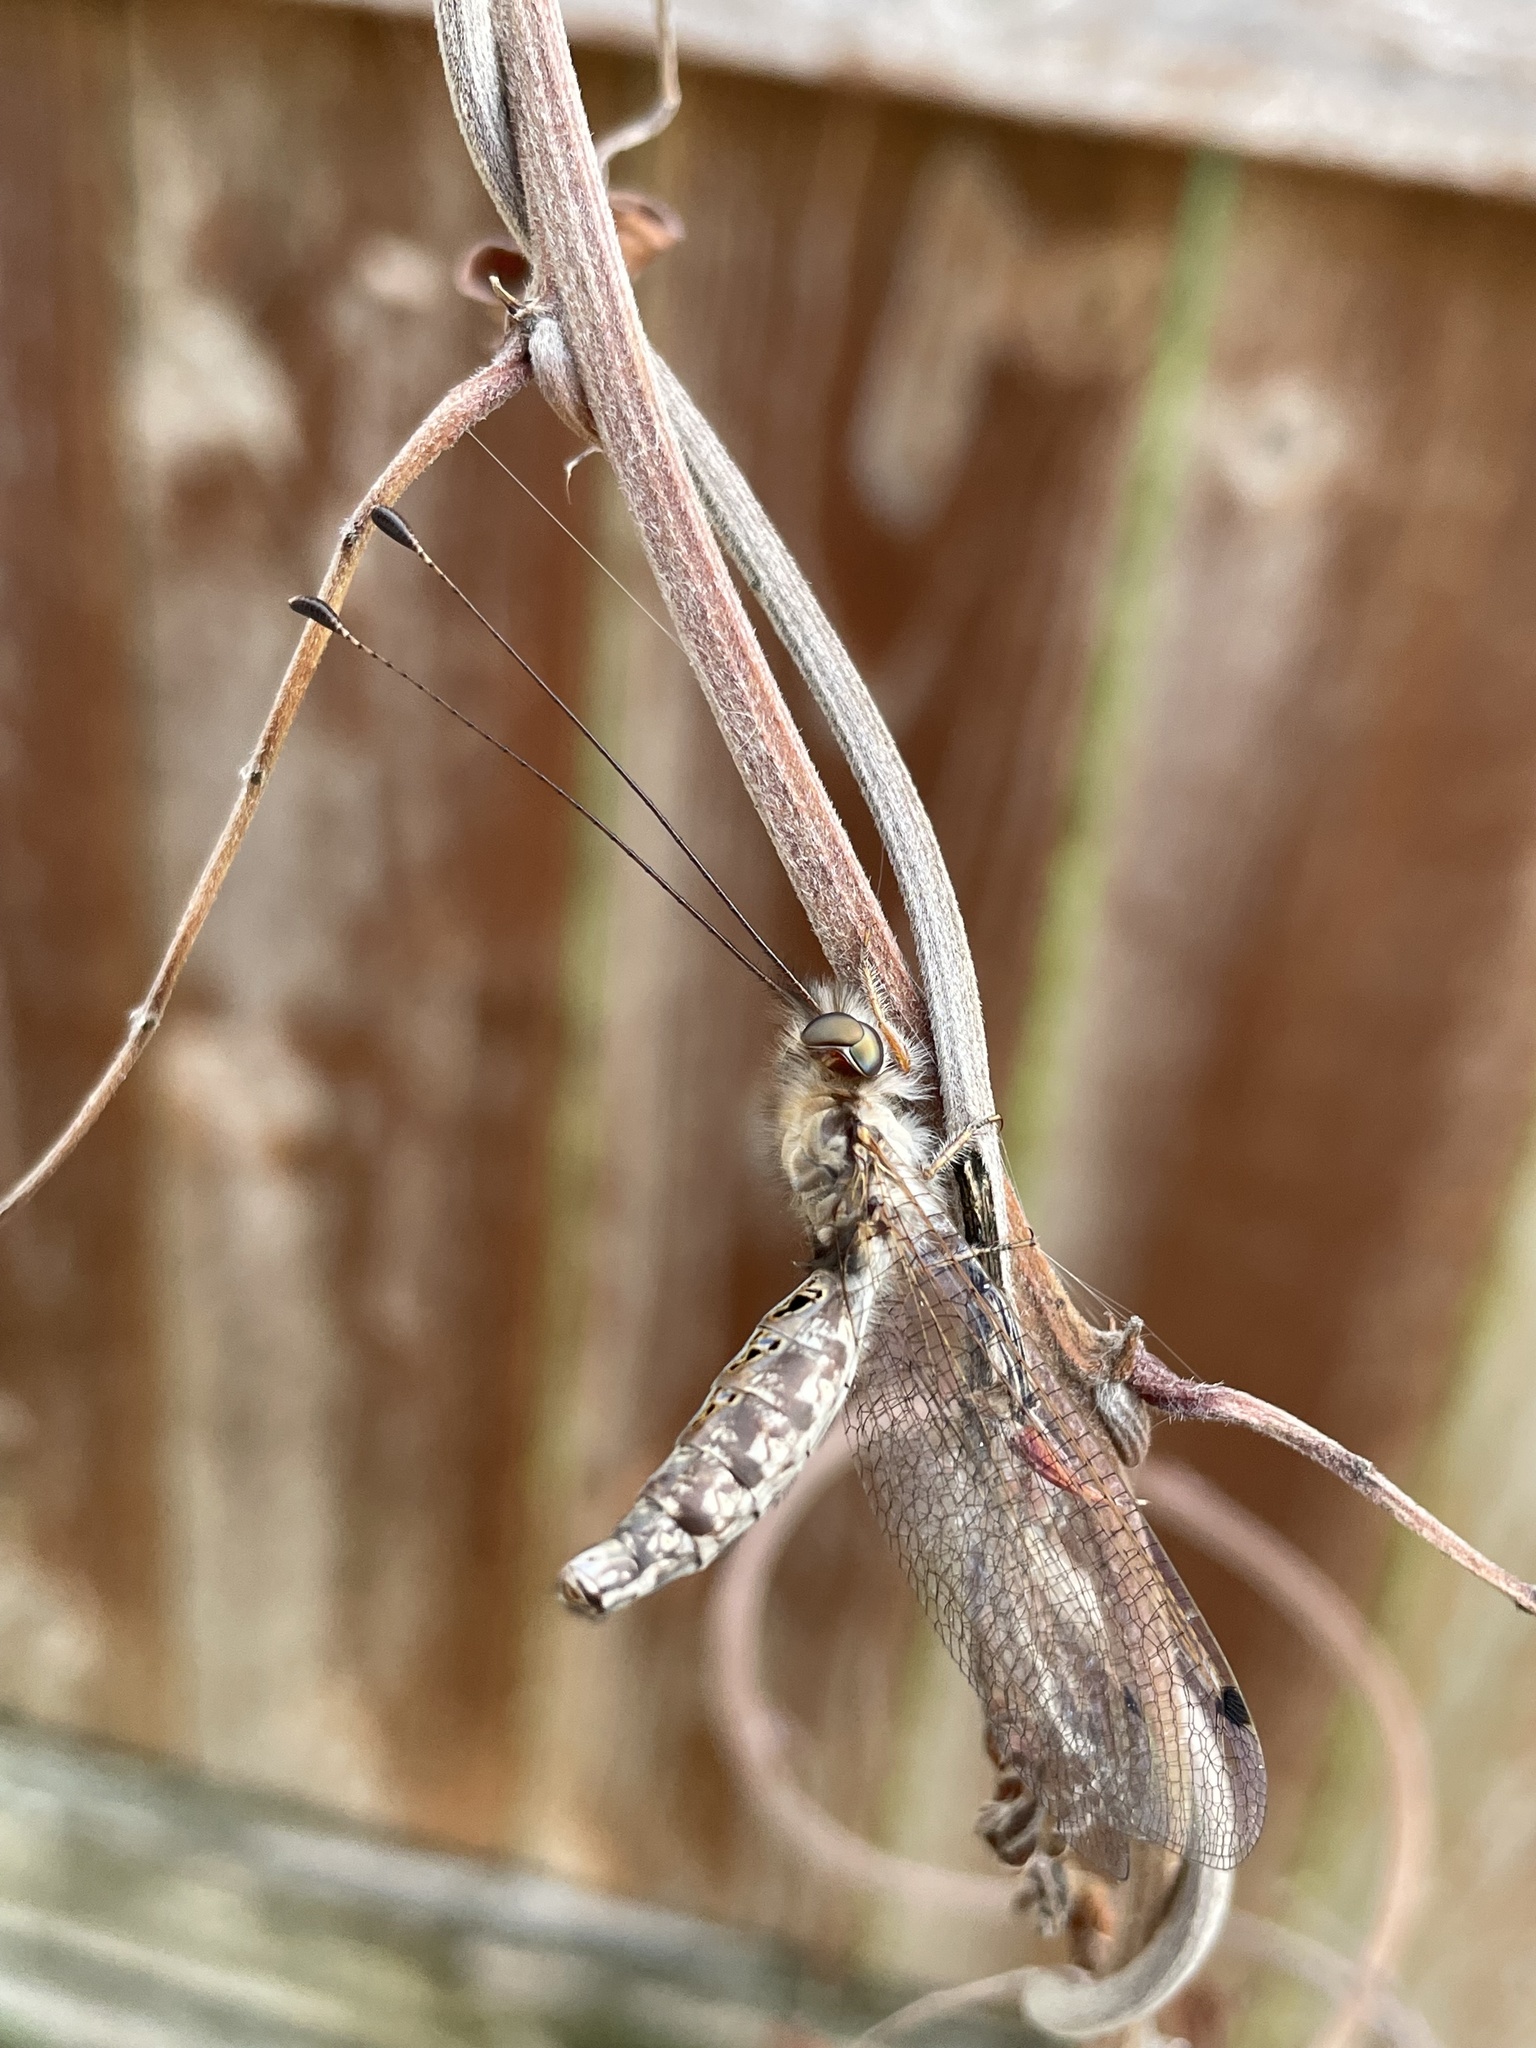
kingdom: Animalia
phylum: Arthropoda
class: Insecta
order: Neuroptera
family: Ascalaphidae
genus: Ululodes
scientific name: Ululodes macleayanus
